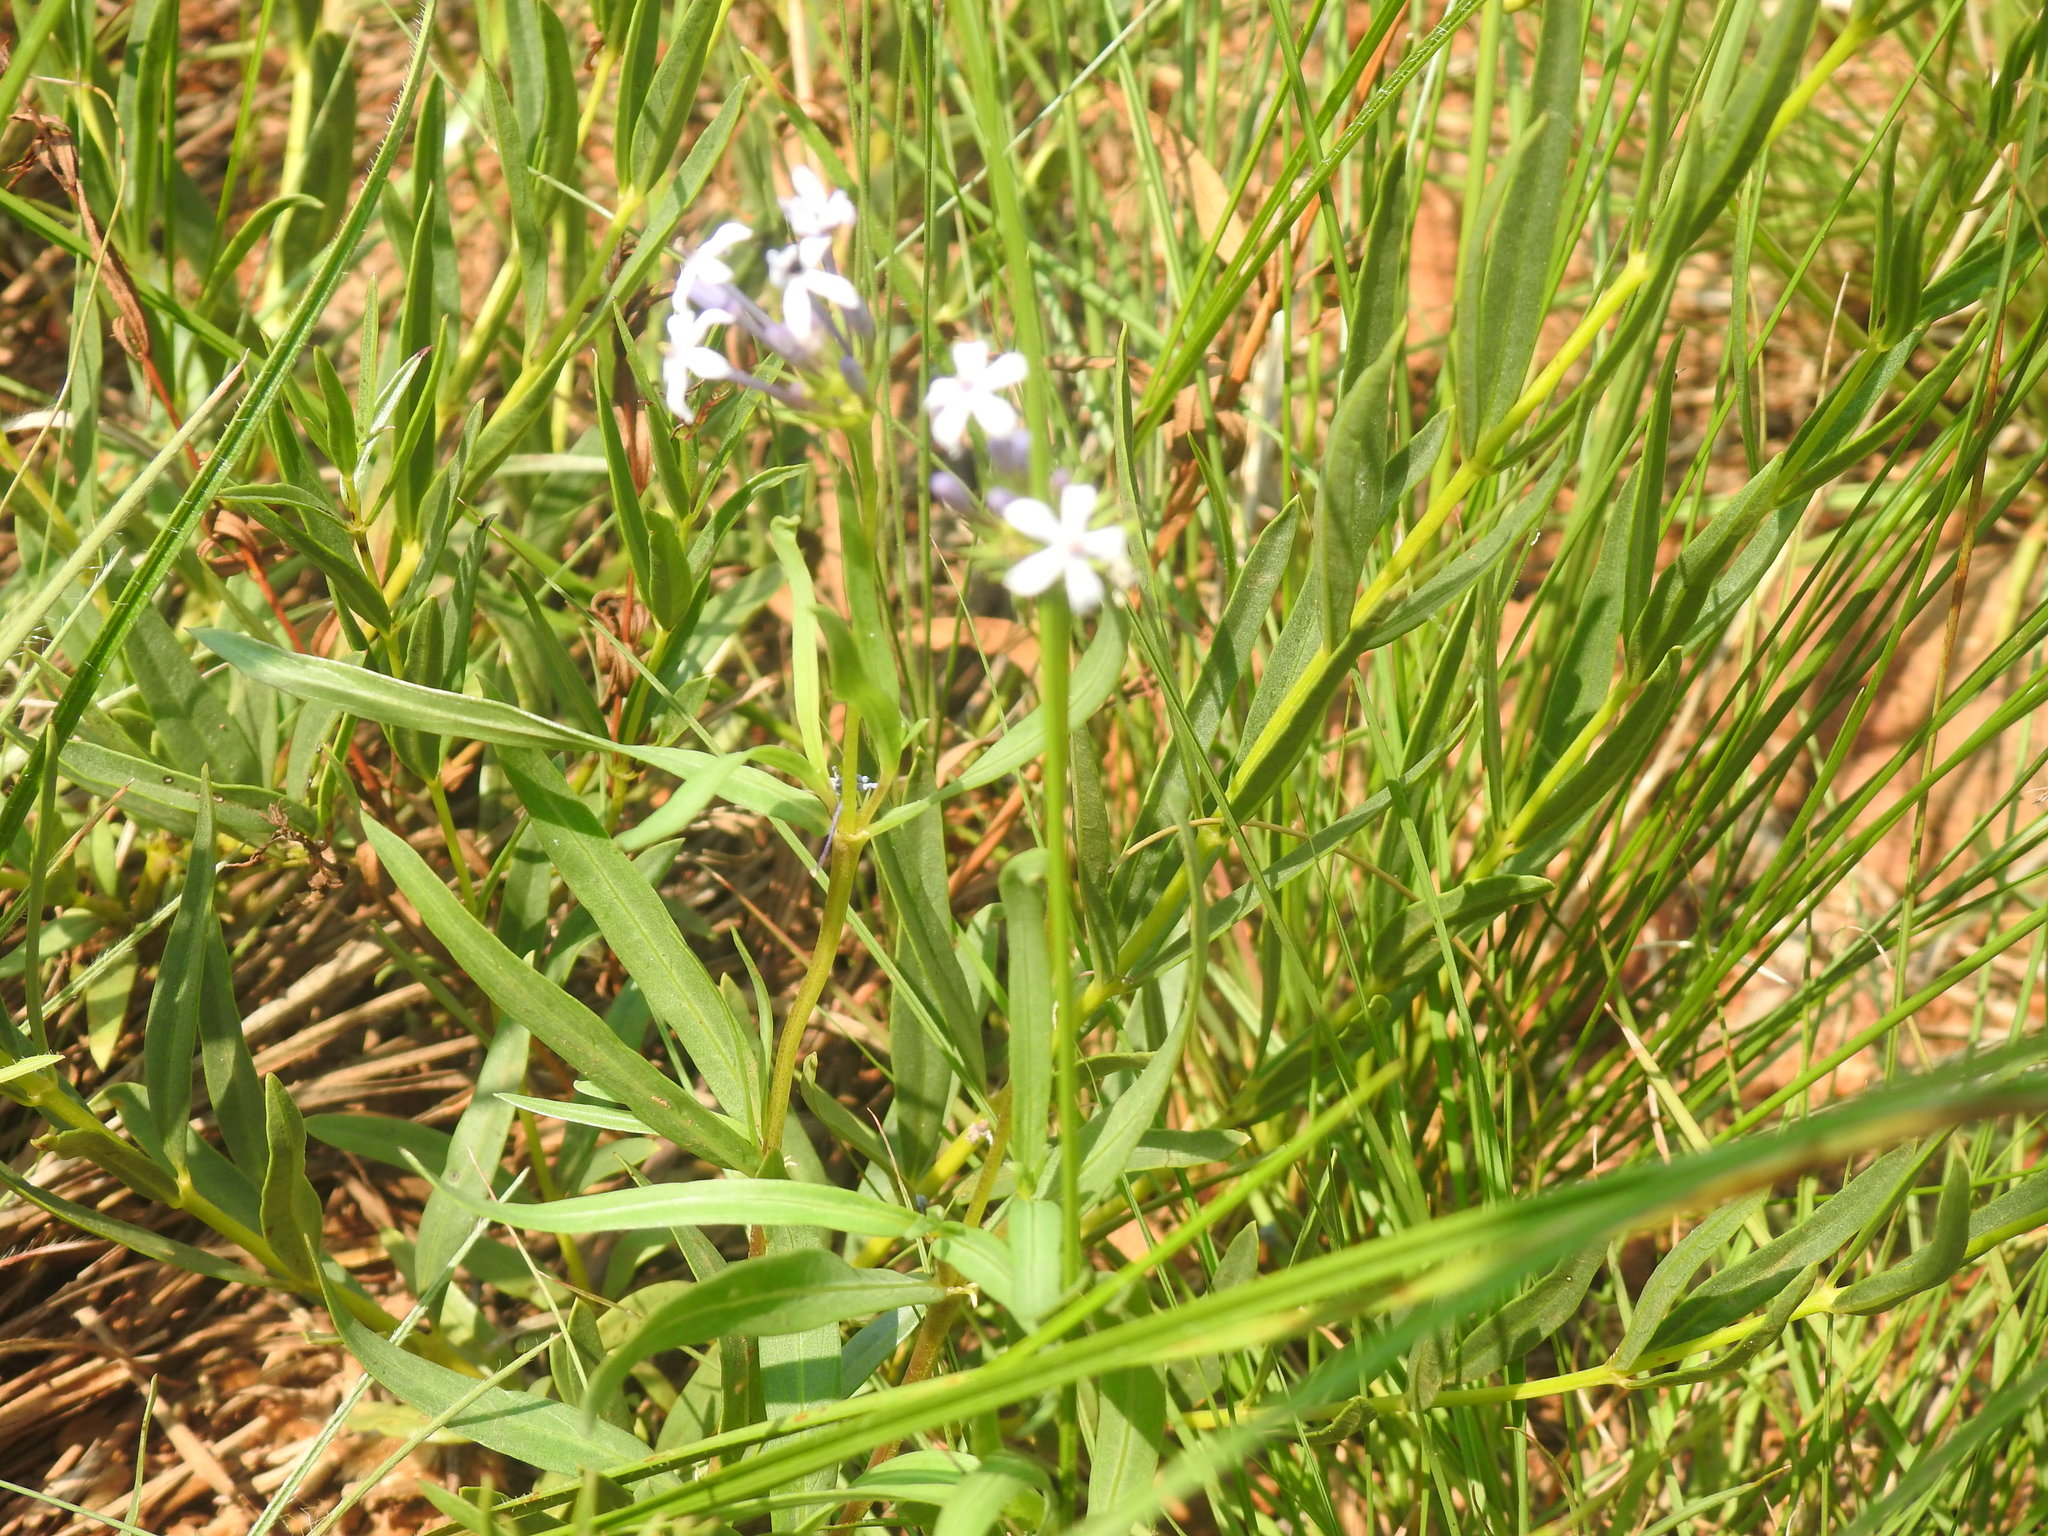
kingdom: Plantae
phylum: Tracheophyta
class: Magnoliopsida
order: Gentianales
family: Rubiaceae
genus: Pentanisia
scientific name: Pentanisia angustifolia
